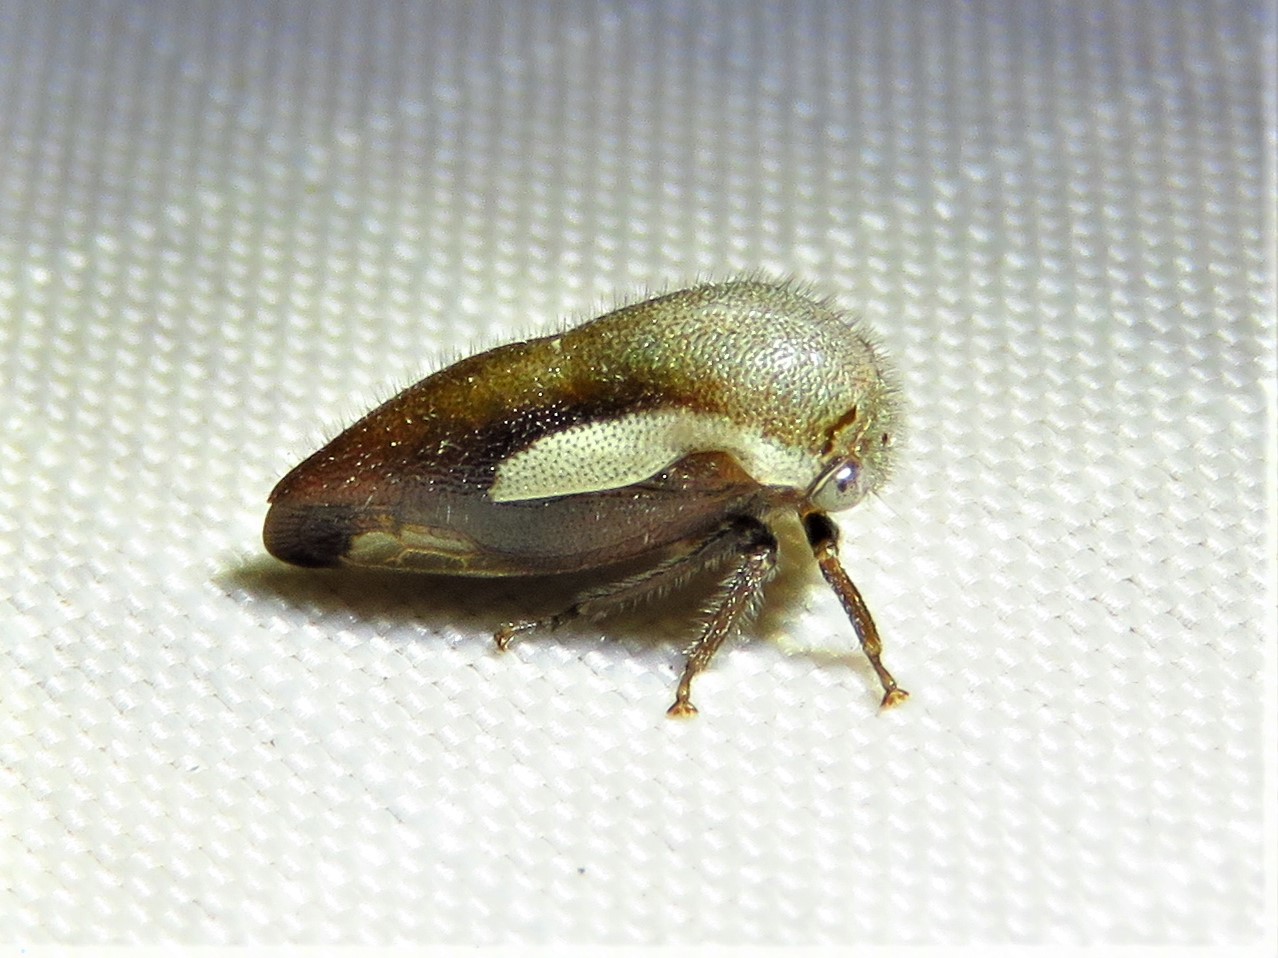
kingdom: Animalia
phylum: Arthropoda
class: Insecta
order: Hemiptera
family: Membracidae
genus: Ophiderma
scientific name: Ophiderma flavicephala
